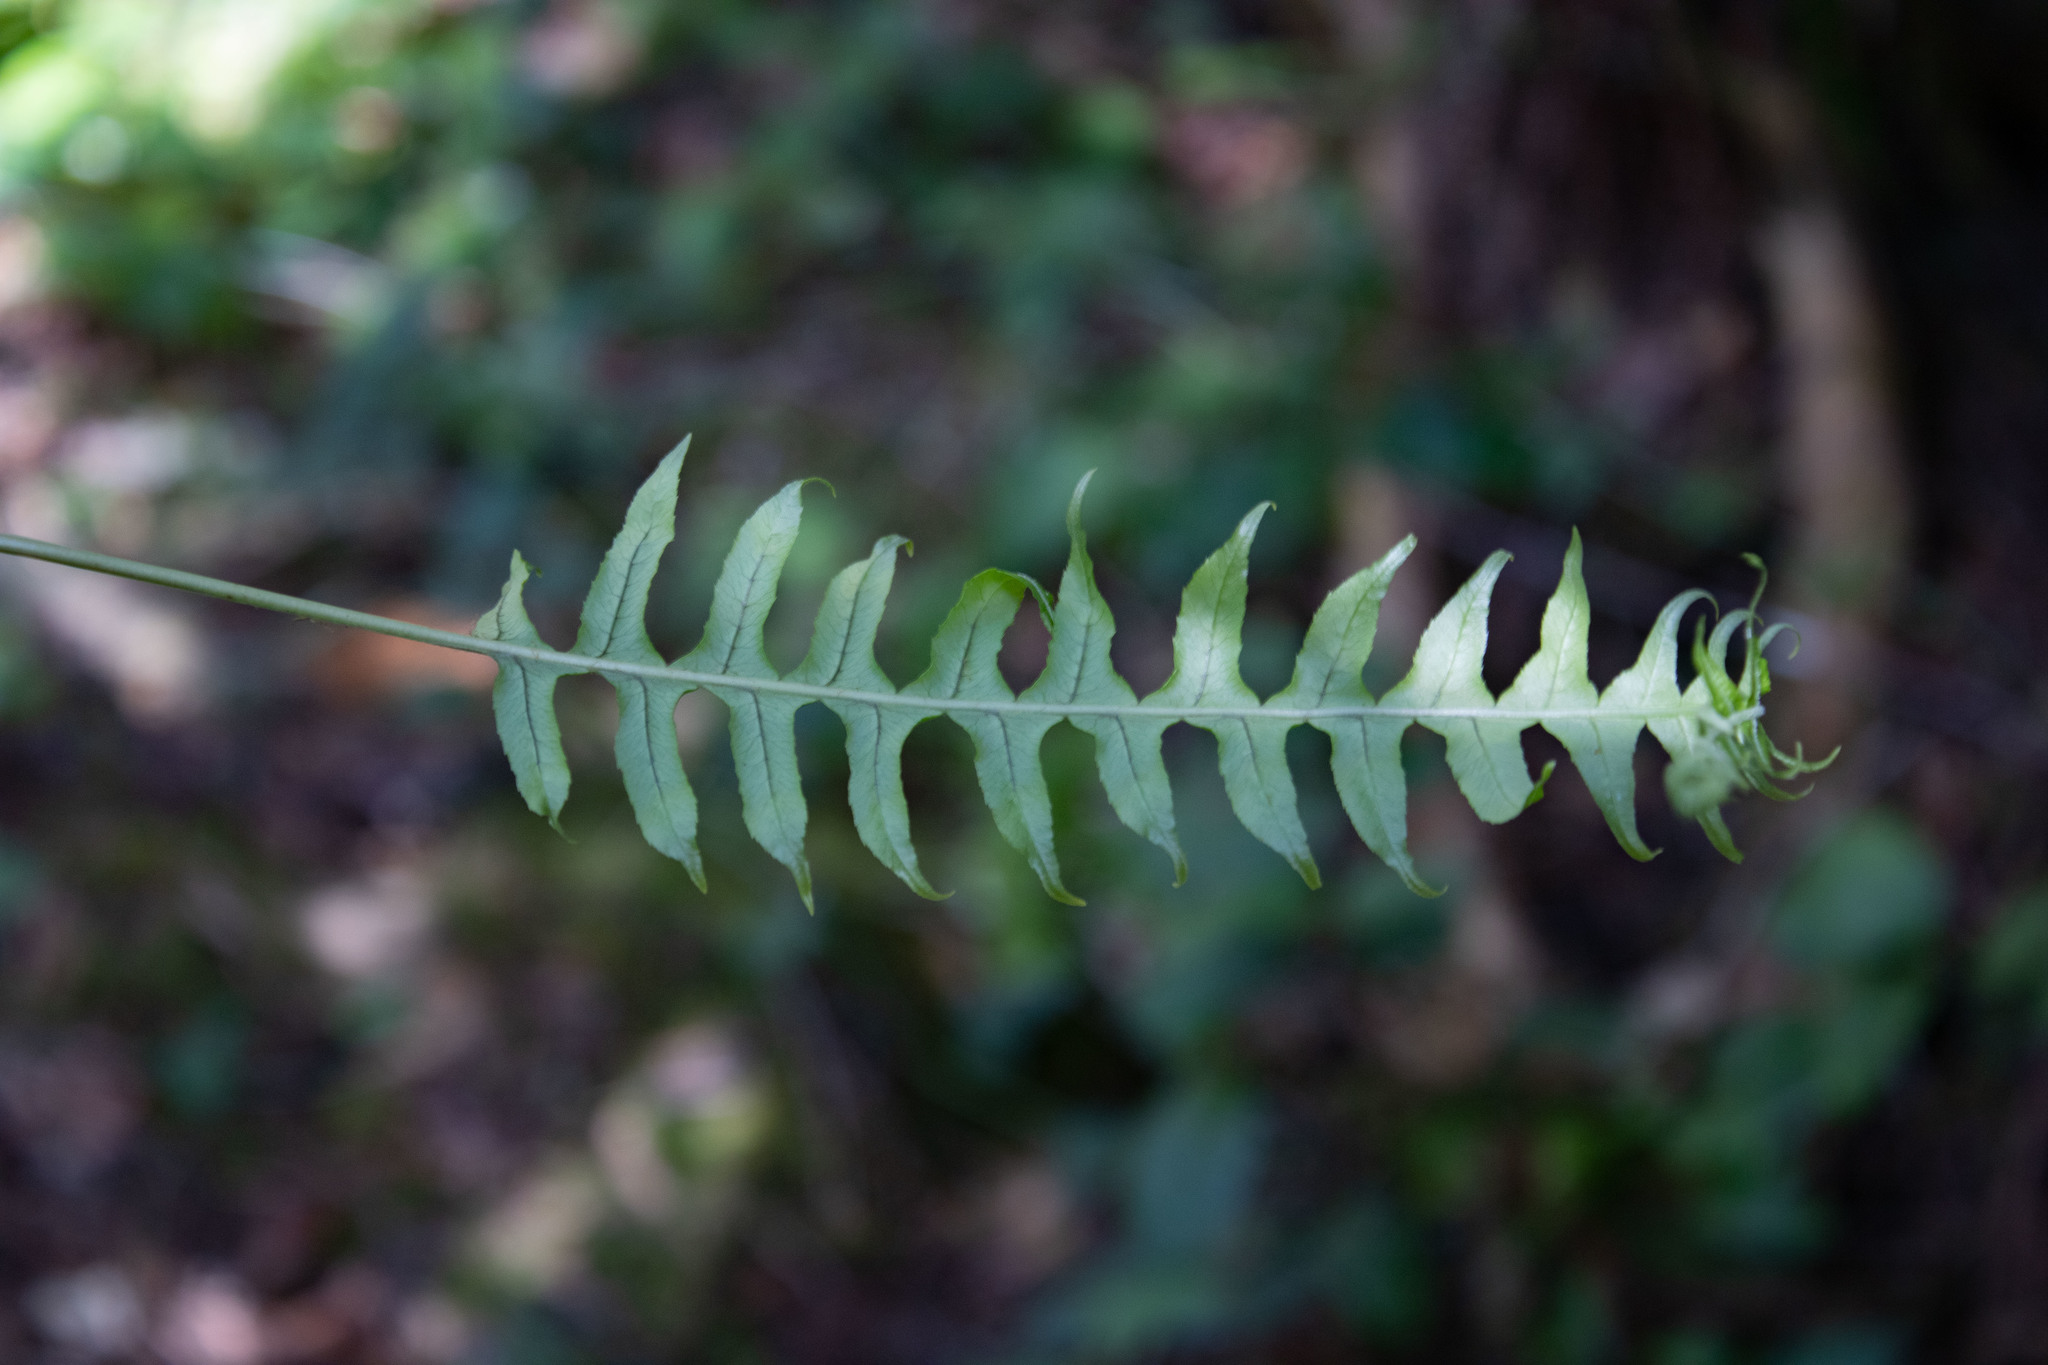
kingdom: Plantae
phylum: Tracheophyta
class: Polypodiopsida
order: Polypodiales
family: Polypodiaceae
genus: Polypodium
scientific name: Polypodium glycyrrhiza
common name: Licorice fern
